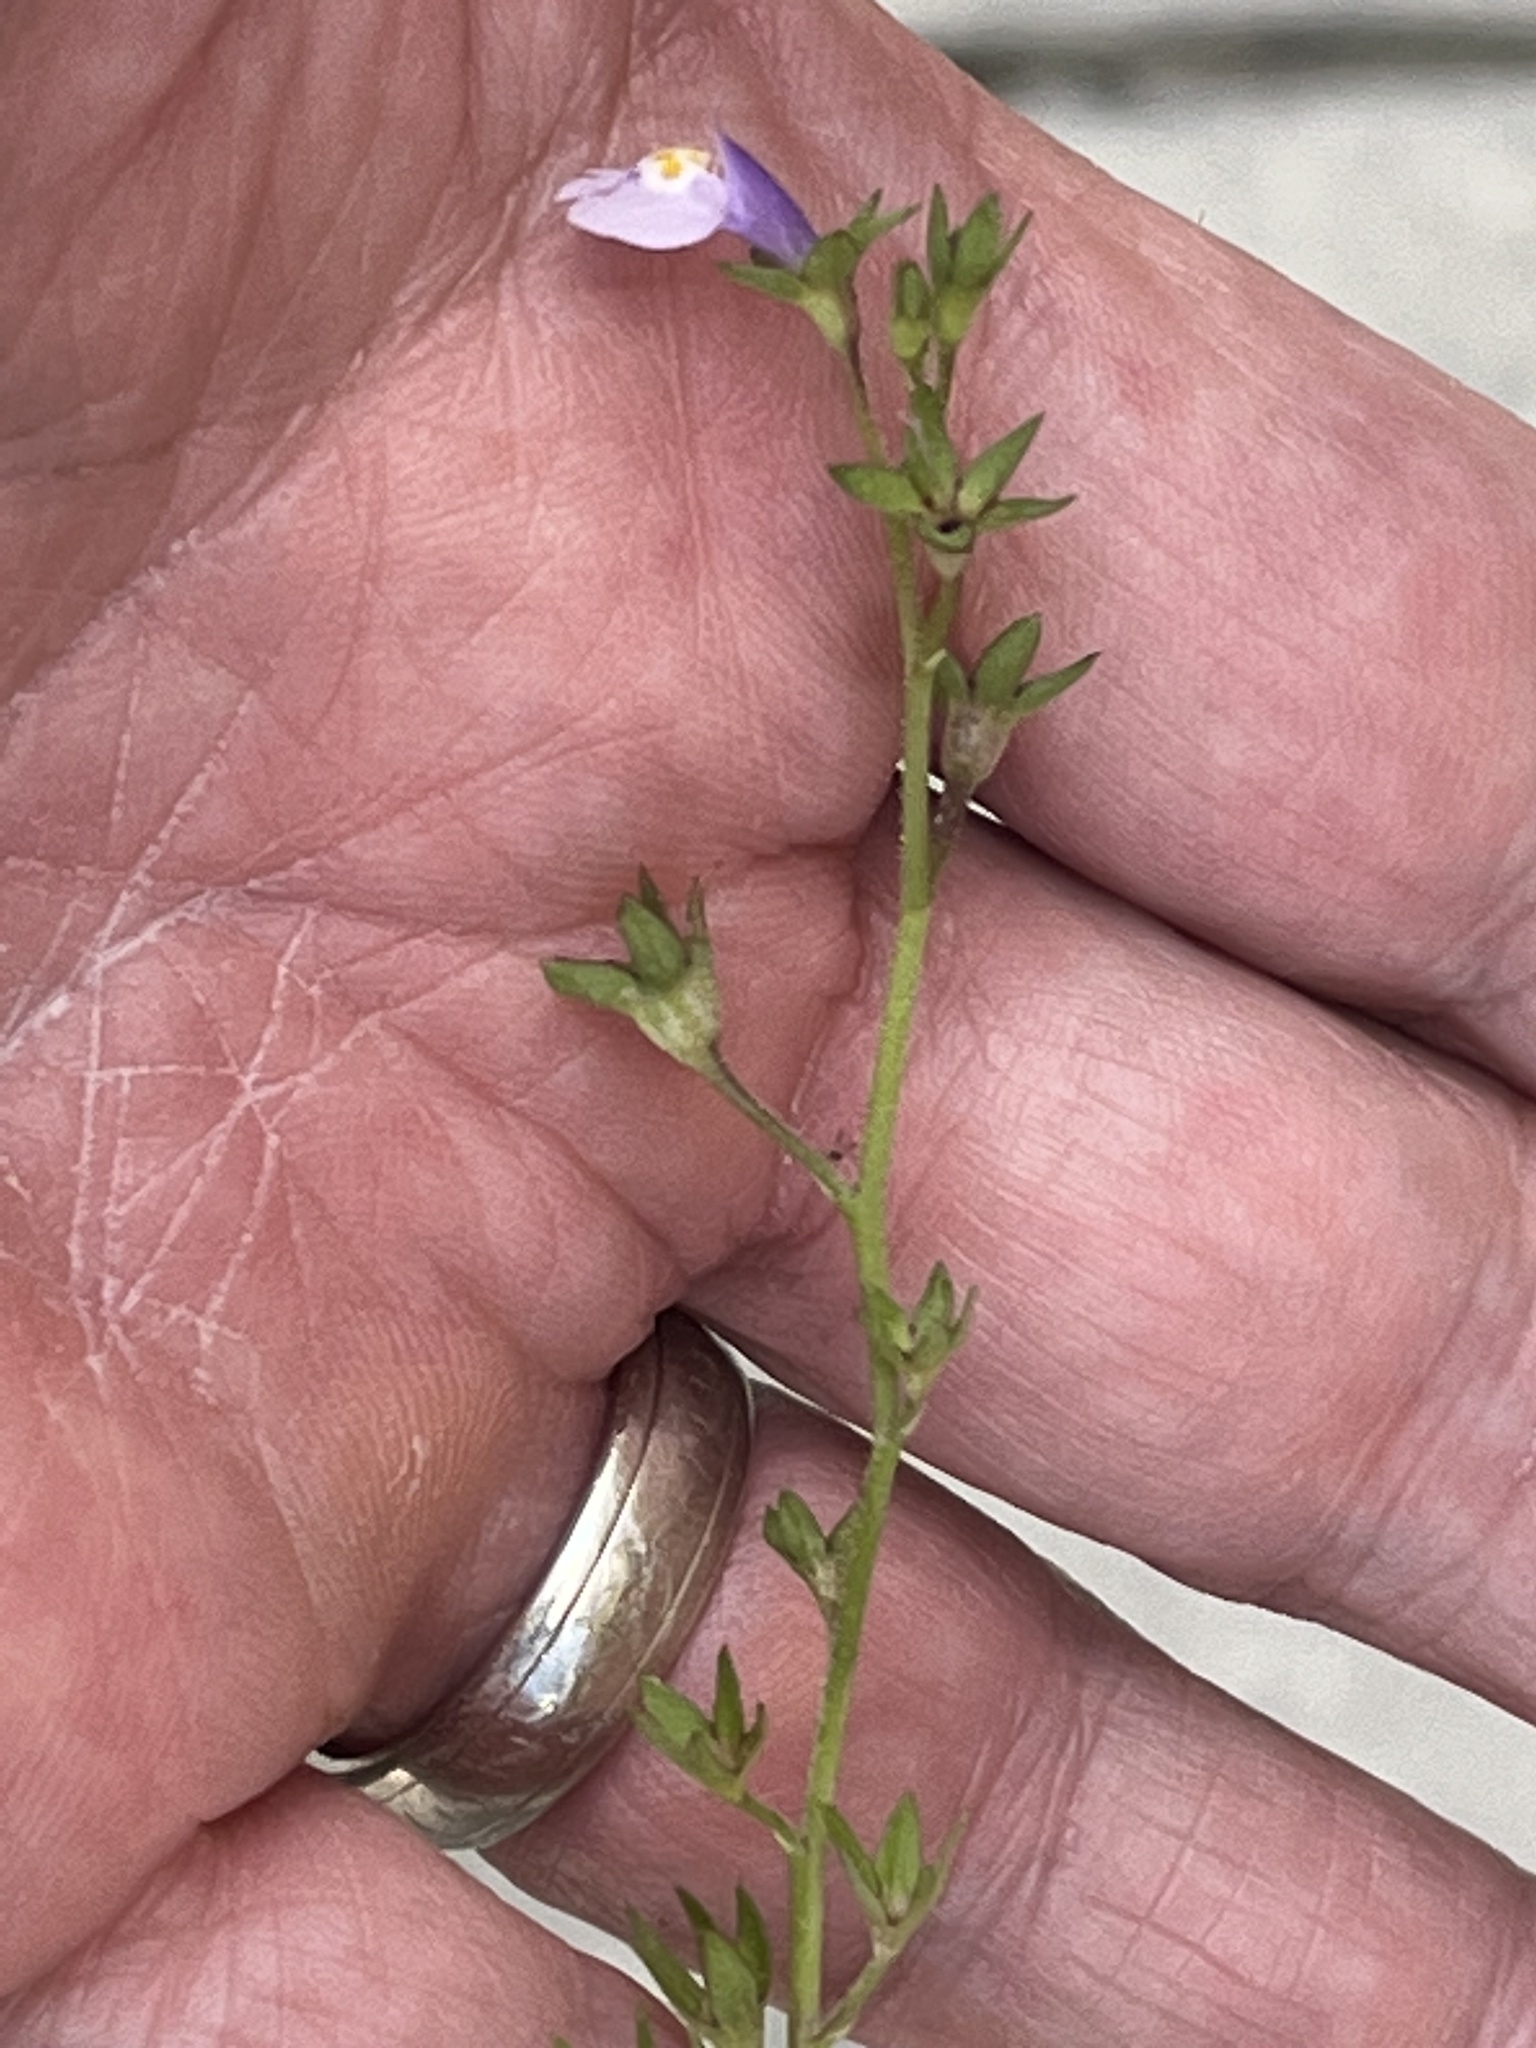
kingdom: Plantae
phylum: Tracheophyta
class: Magnoliopsida
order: Lamiales
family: Mazaceae
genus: Mazus
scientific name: Mazus pumilus
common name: Japanese mazus
